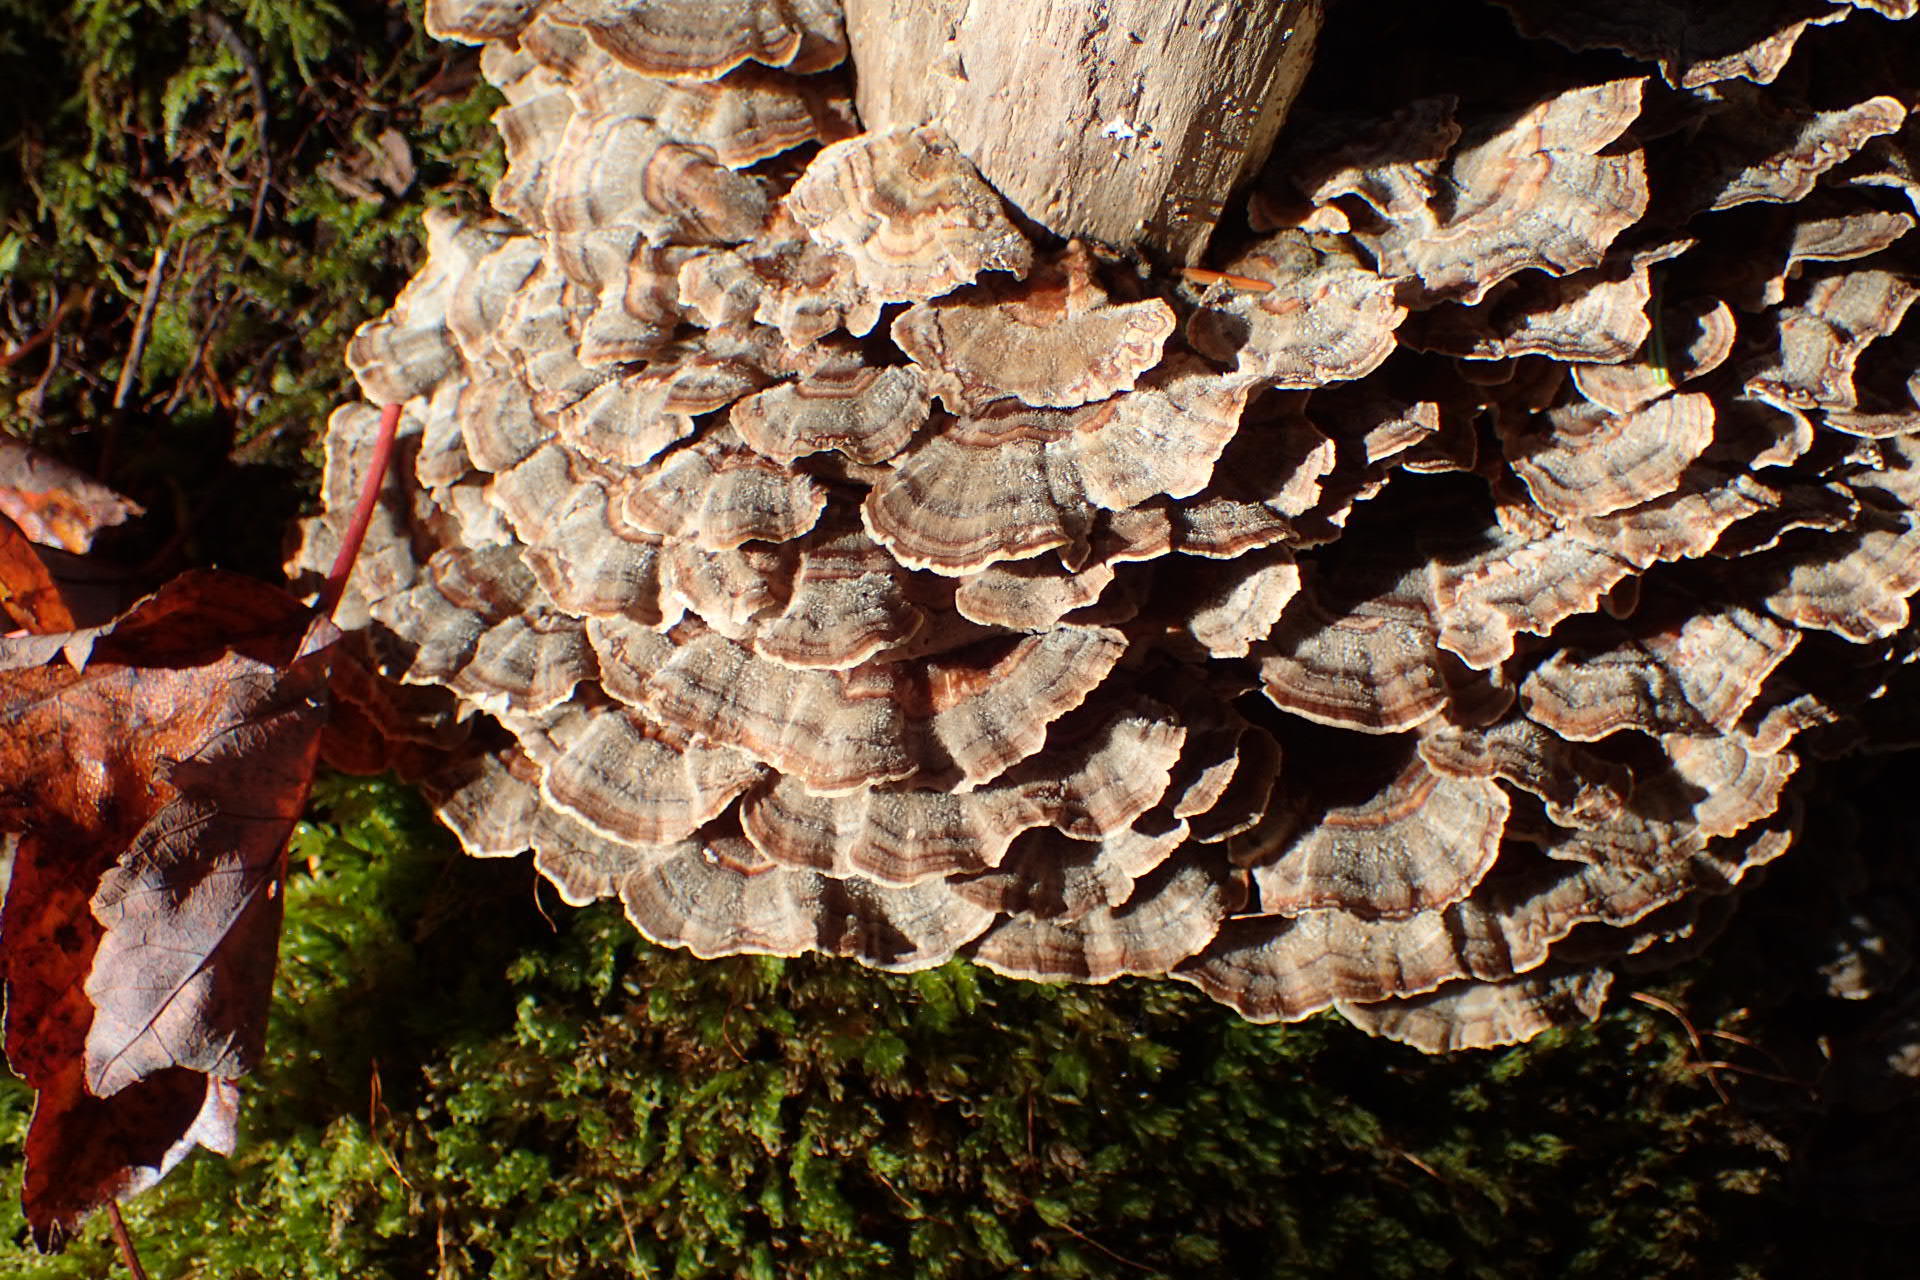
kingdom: Fungi
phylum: Basidiomycota
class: Agaricomycetes
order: Polyporales
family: Polyporaceae
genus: Trametes
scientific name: Trametes versicolor
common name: Turkeytail
